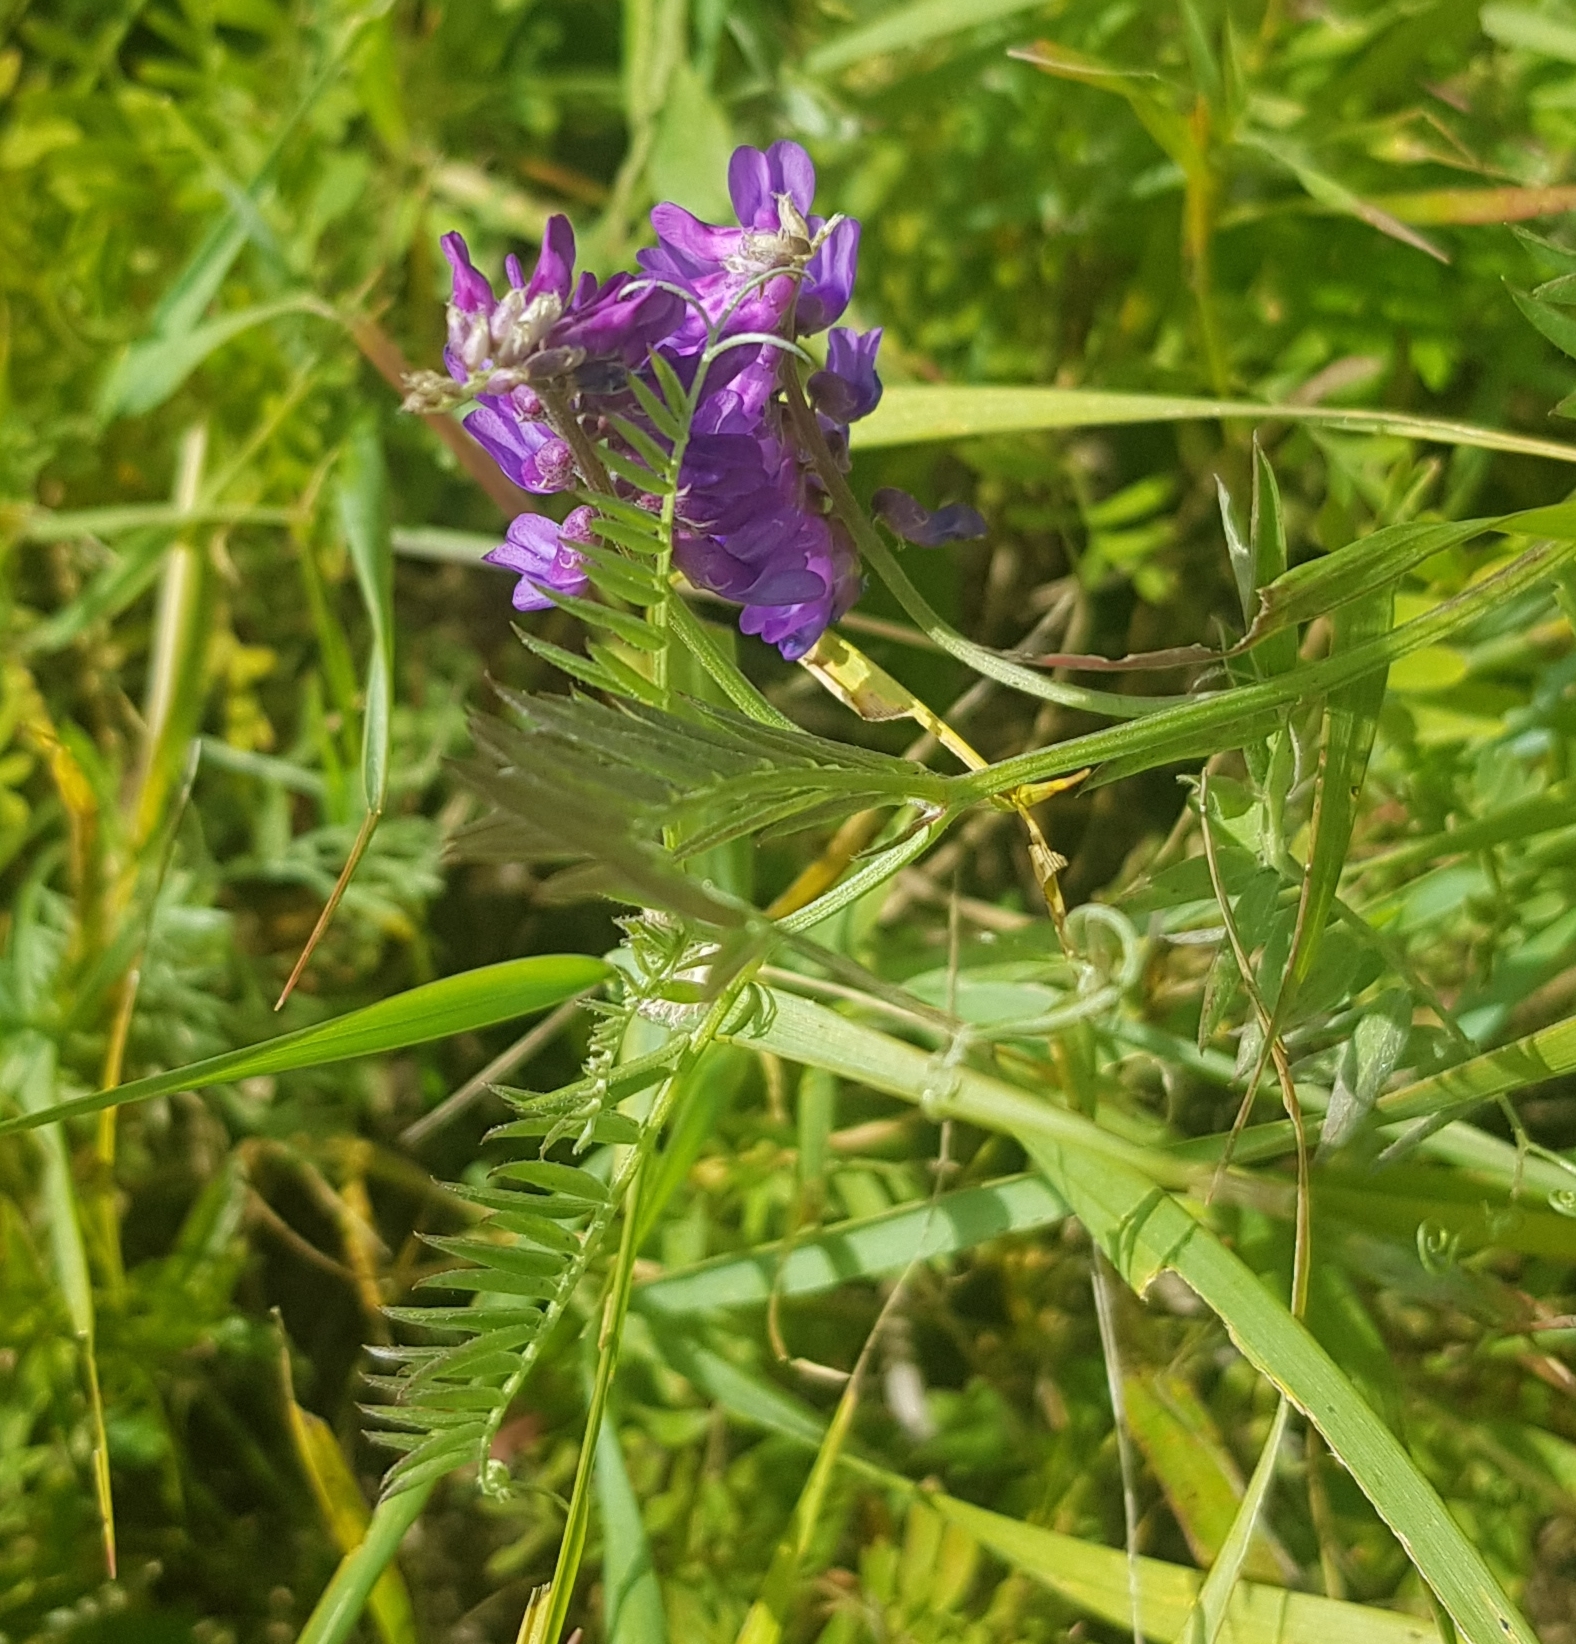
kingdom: Plantae
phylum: Tracheophyta
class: Magnoliopsida
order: Fabales
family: Fabaceae
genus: Vicia
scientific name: Vicia cracca
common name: Bird vetch
